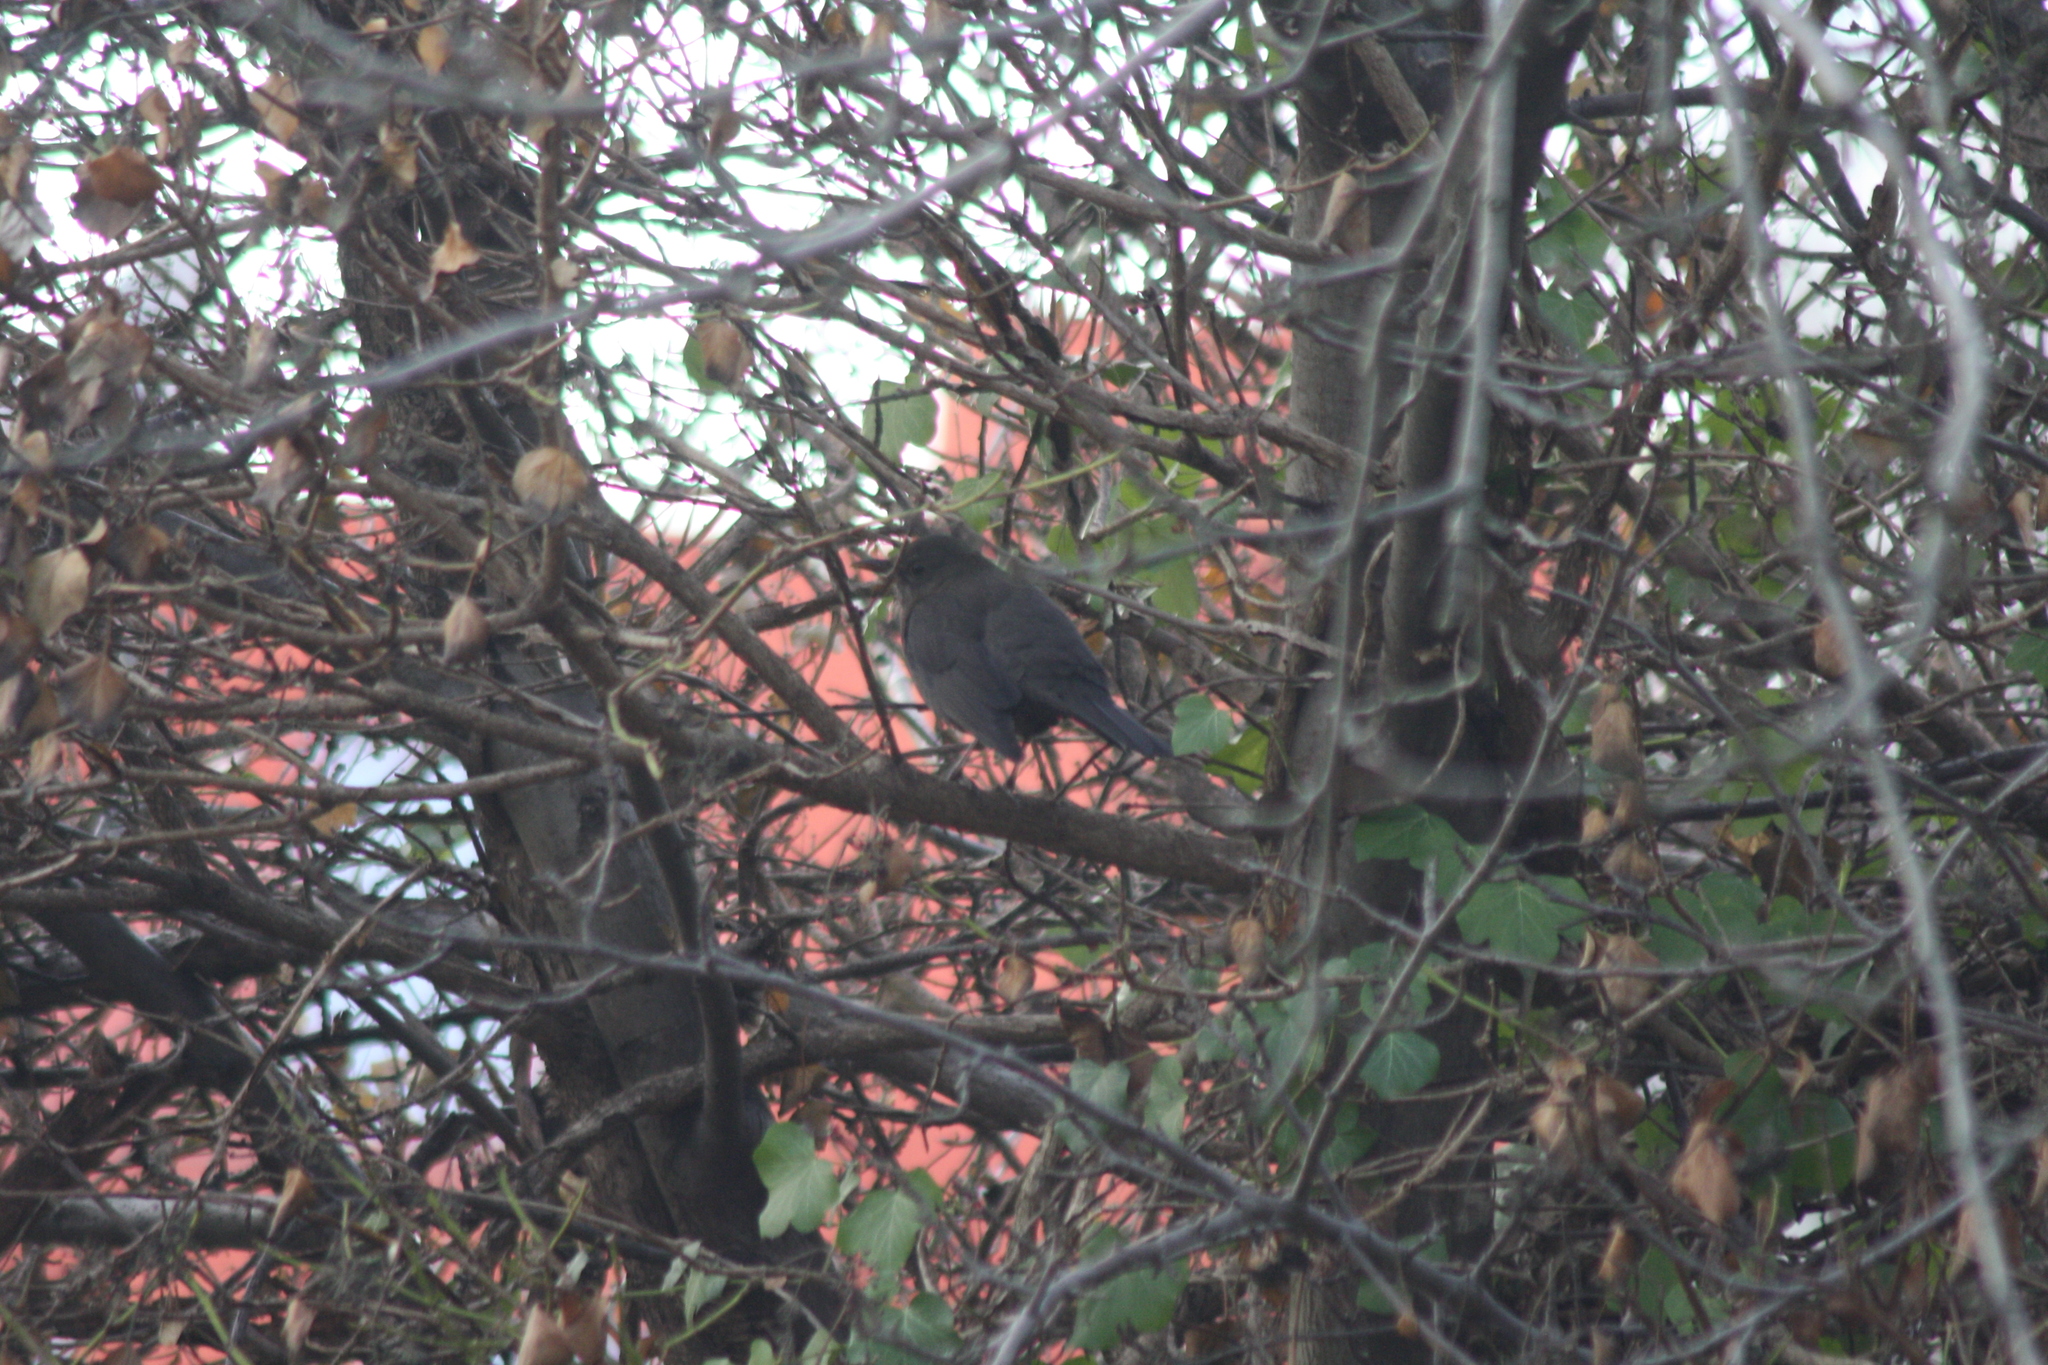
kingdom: Animalia
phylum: Chordata
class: Aves
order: Passeriformes
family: Turdidae
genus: Turdus
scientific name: Turdus merula
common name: Common blackbird
